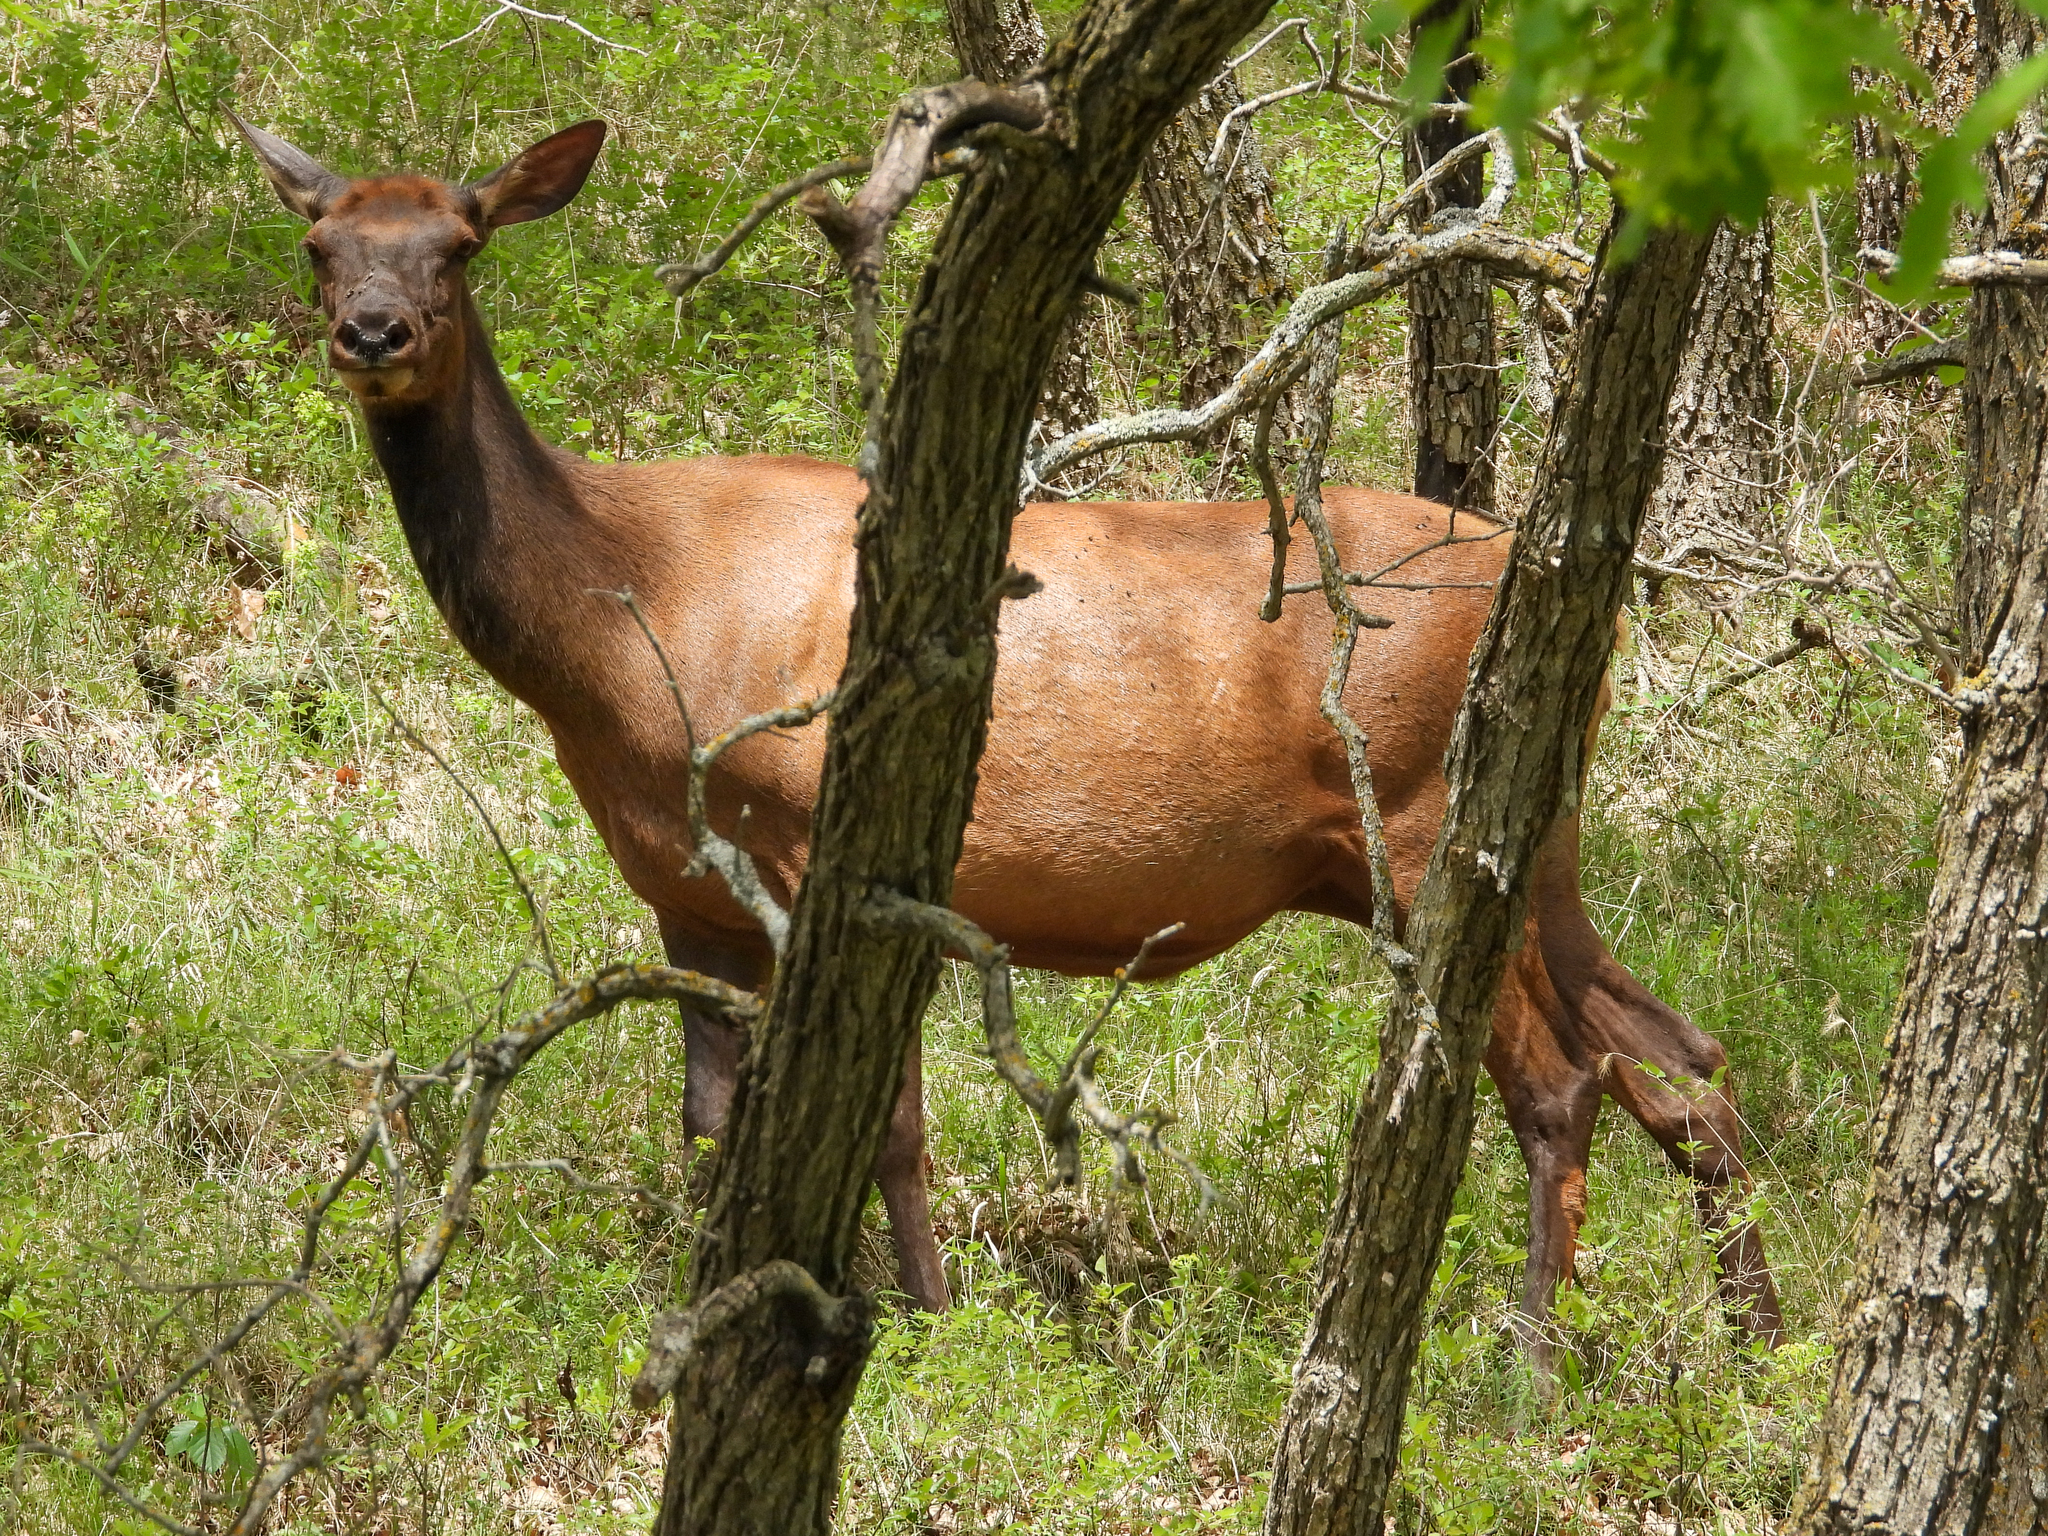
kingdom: Animalia
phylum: Chordata
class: Mammalia
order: Artiodactyla
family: Cervidae
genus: Cervus
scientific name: Cervus elaphus
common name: Red deer
